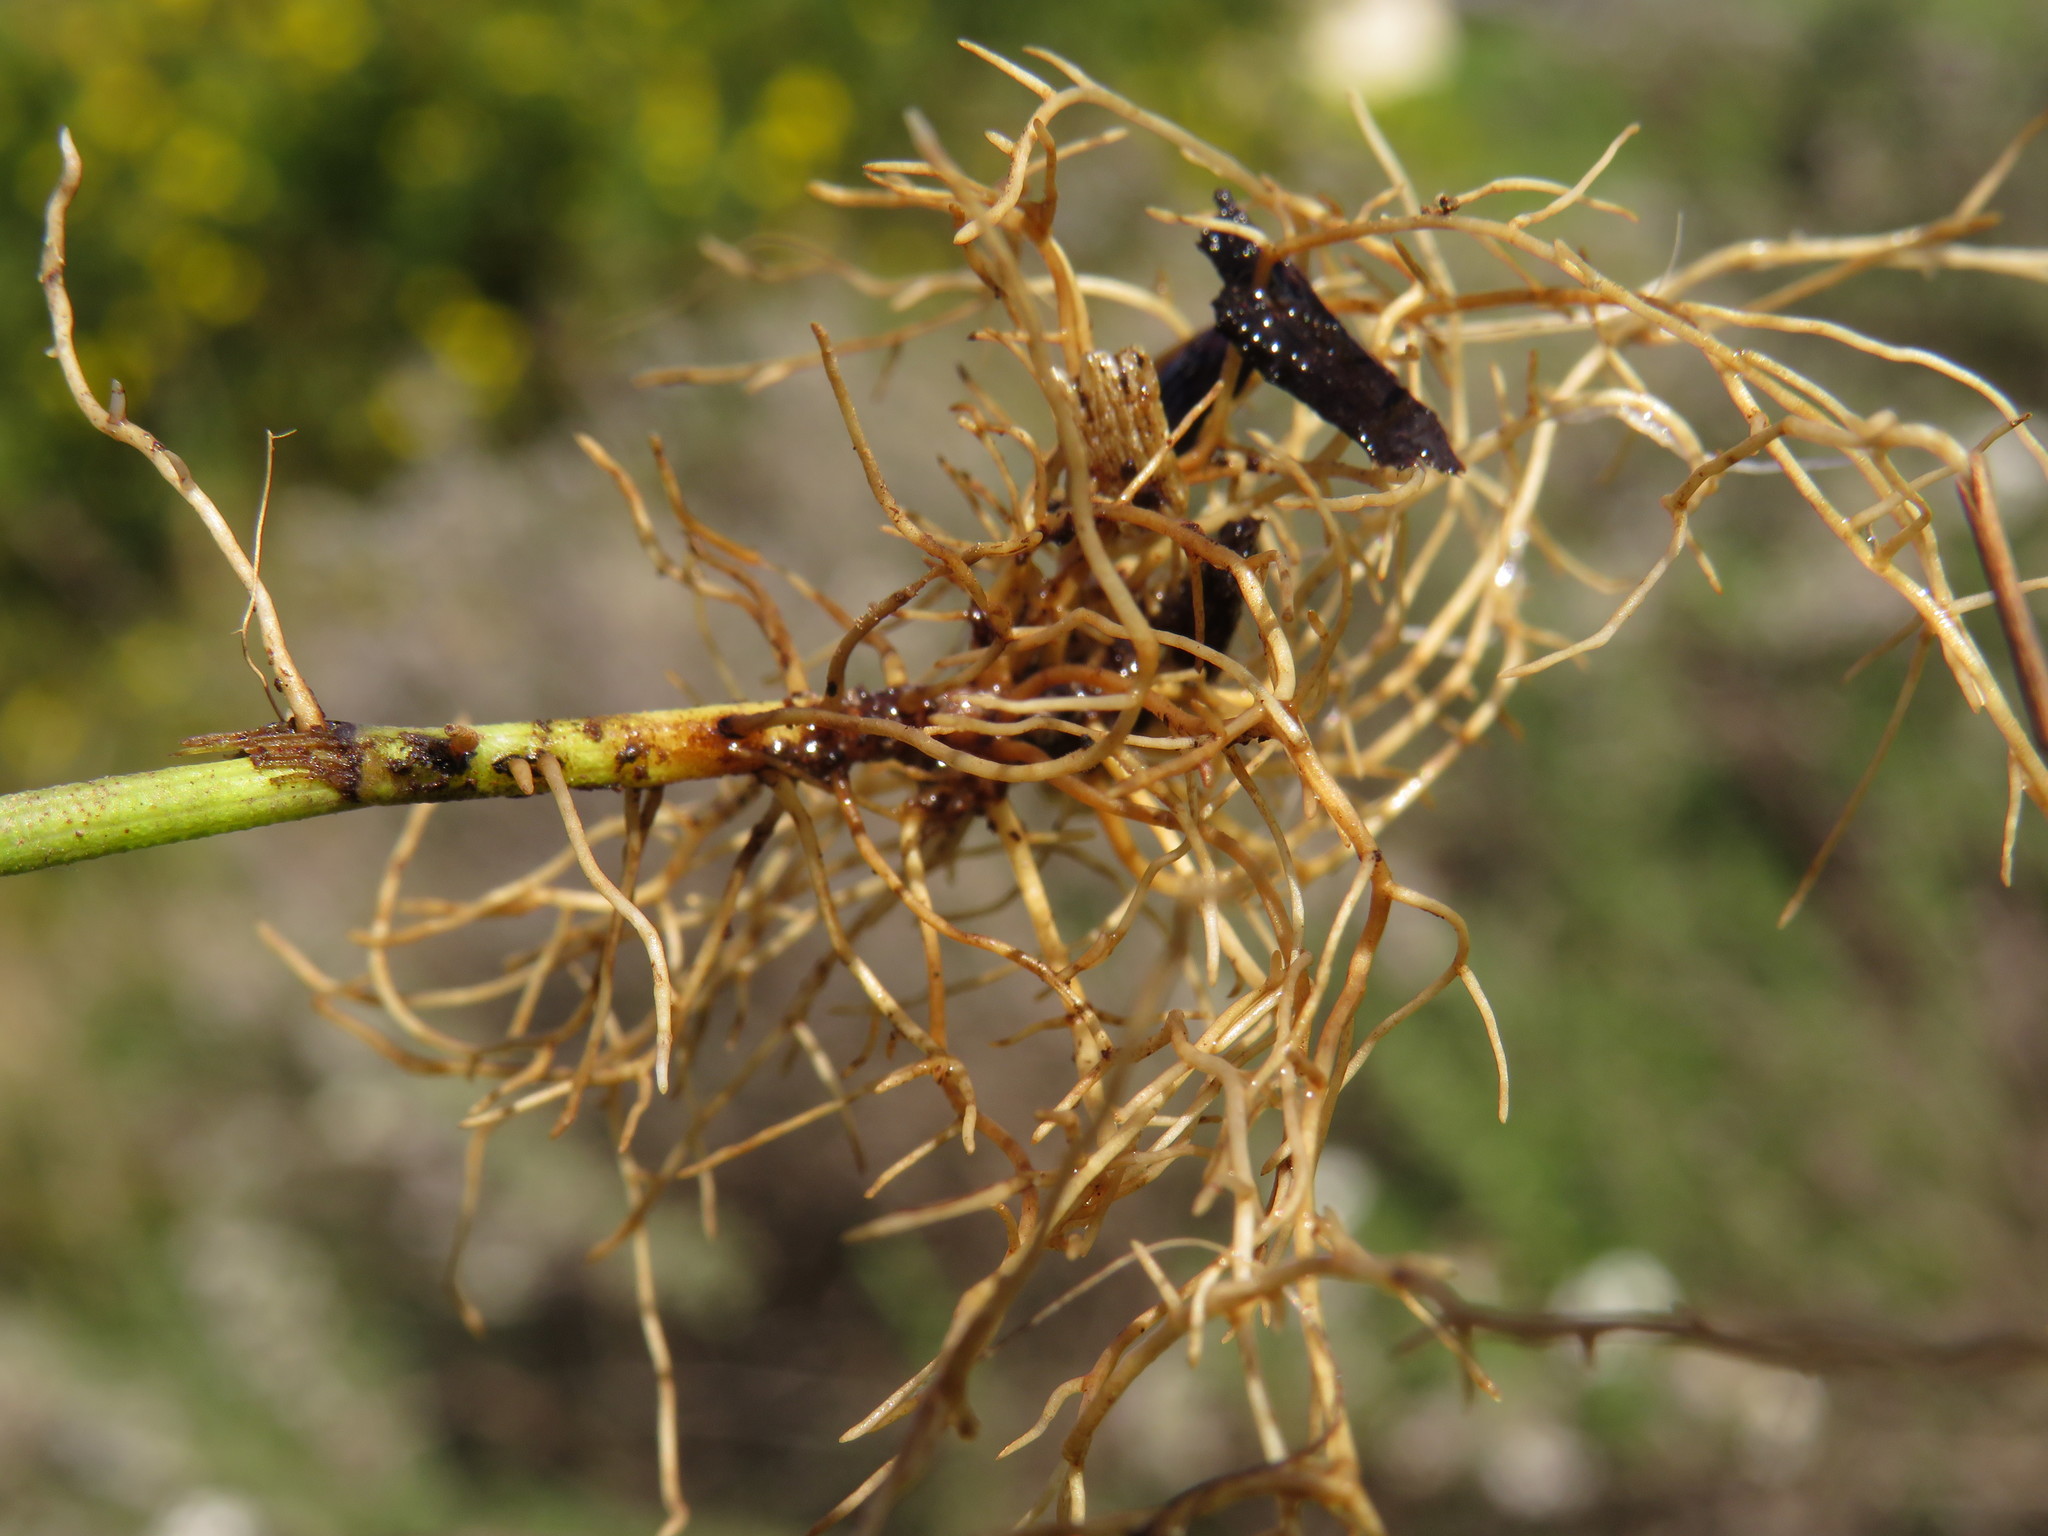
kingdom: Plantae
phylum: Tracheophyta
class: Magnoliopsida
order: Fabales
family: Fabaceae
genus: Psoralea
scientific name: Psoralea fascicularis
